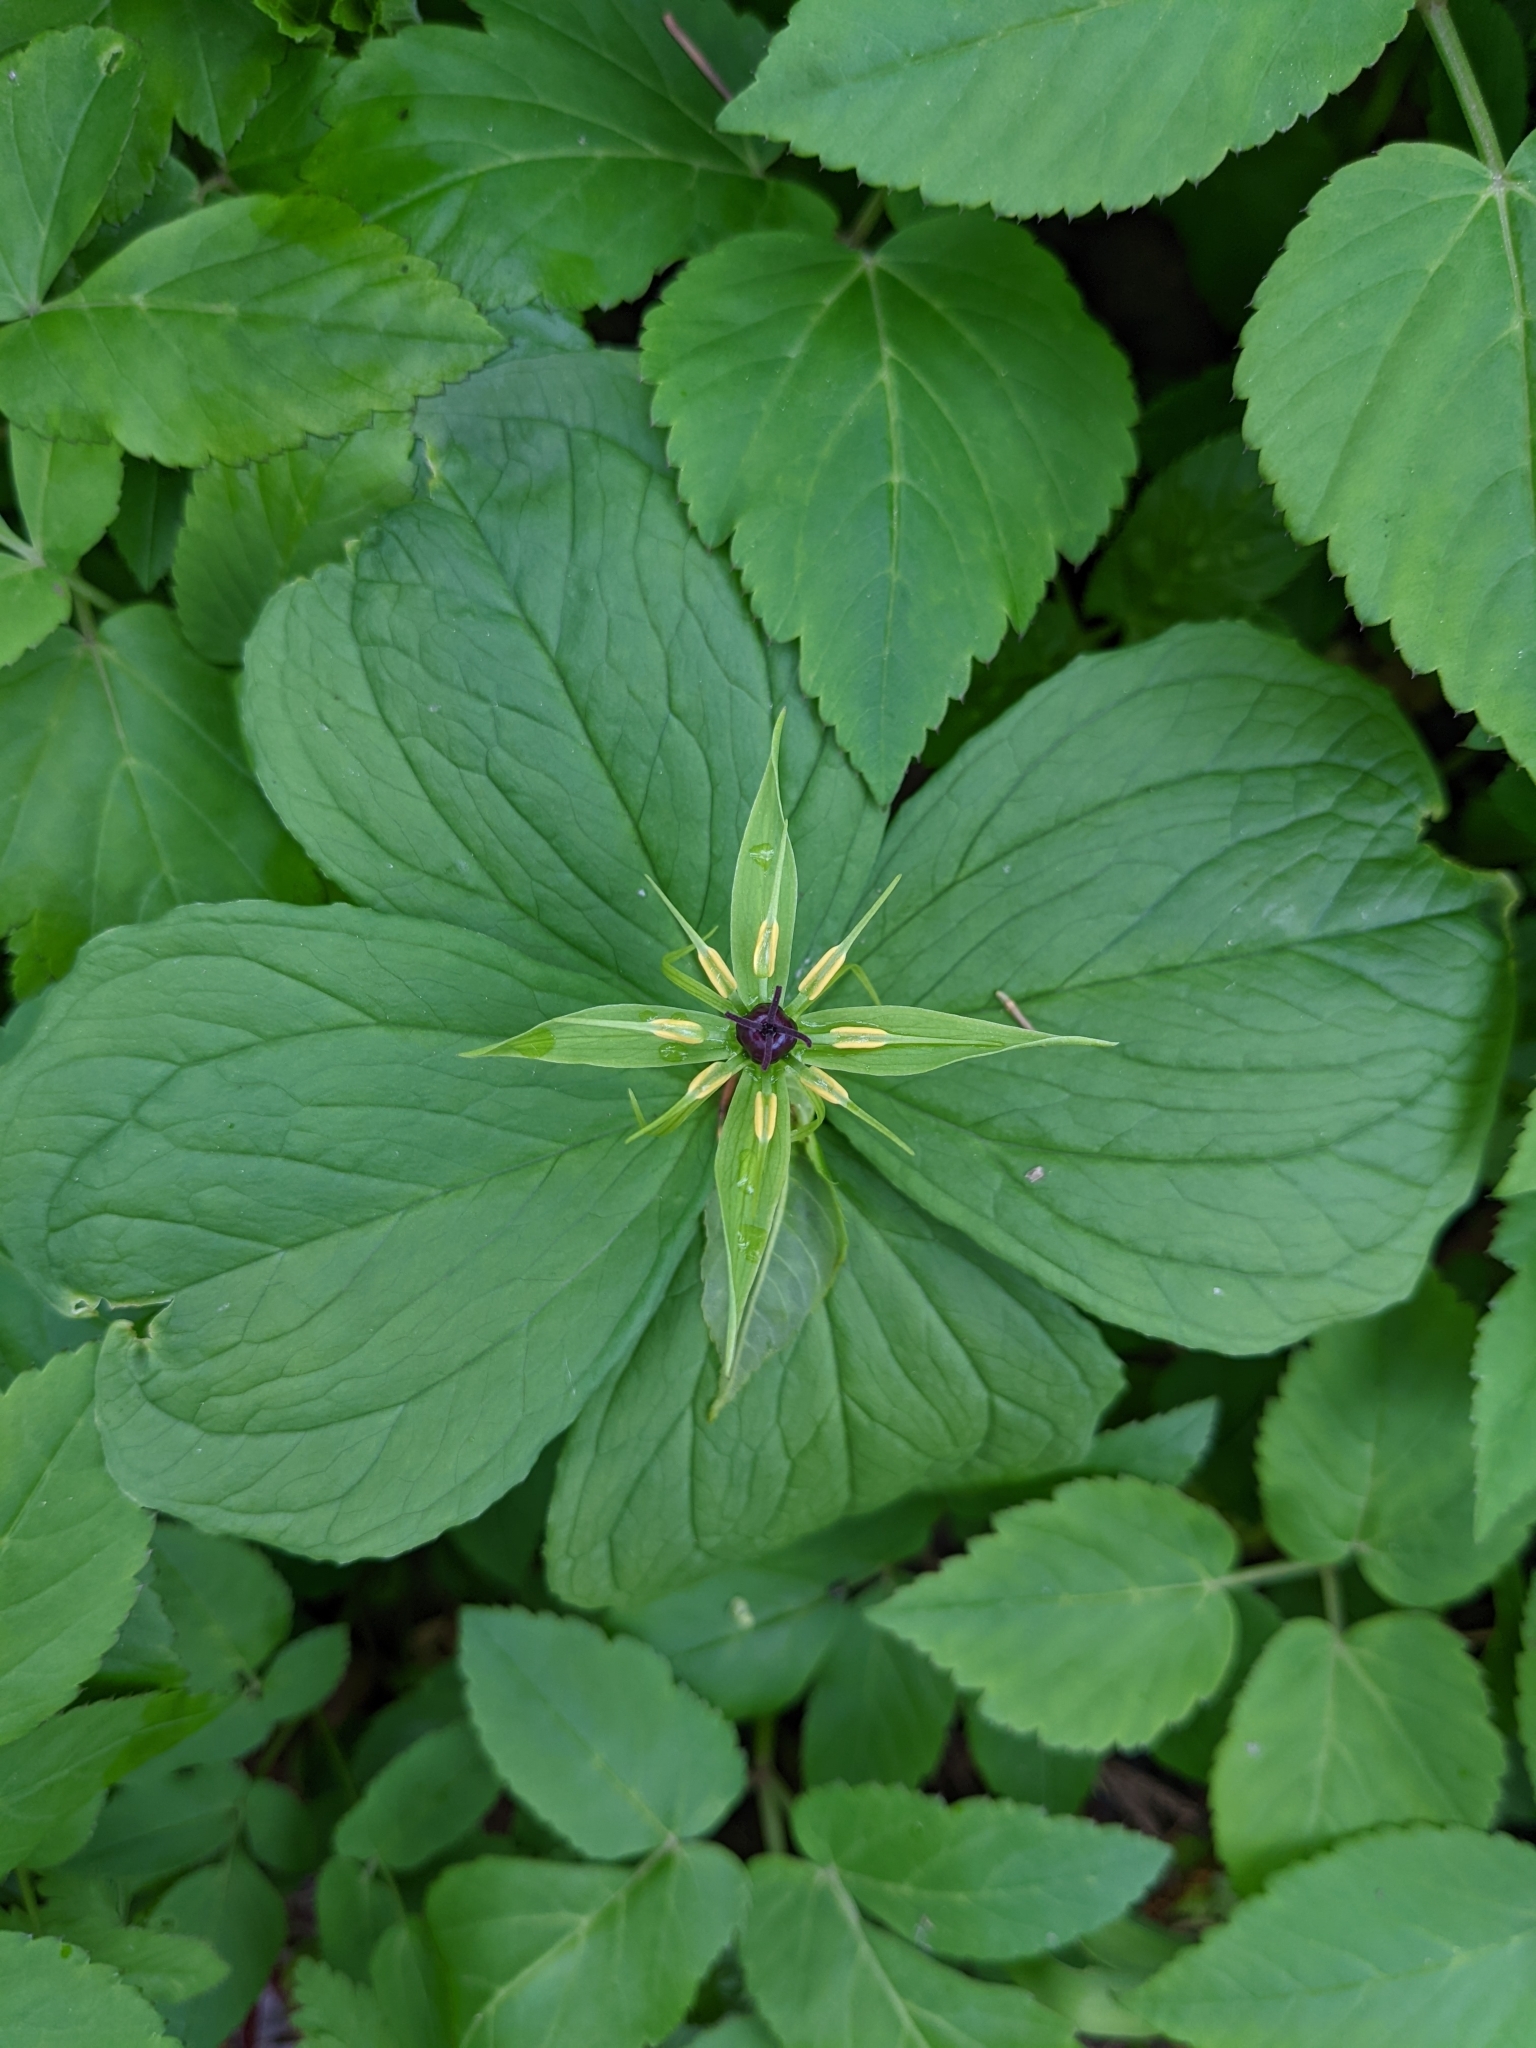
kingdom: Plantae
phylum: Tracheophyta
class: Liliopsida
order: Liliales
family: Melanthiaceae
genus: Paris
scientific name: Paris quadrifolia
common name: Herb-paris
